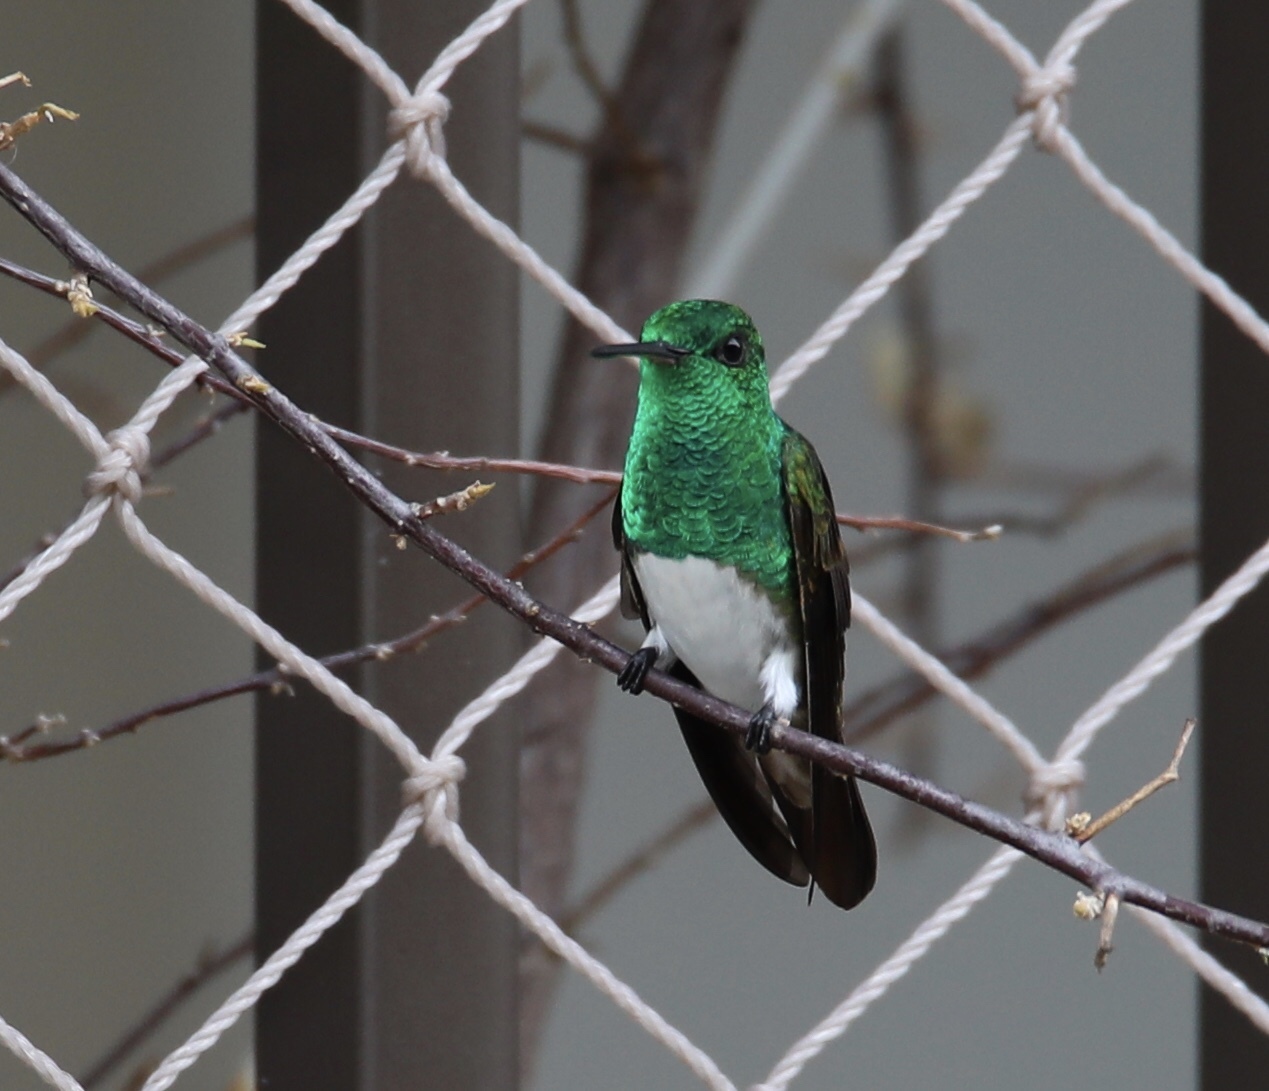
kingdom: Animalia
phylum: Chordata
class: Aves
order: Apodiformes
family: Trochilidae
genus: Saucerottia
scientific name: Saucerottia edward
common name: Snowy-bellied hummingbird
